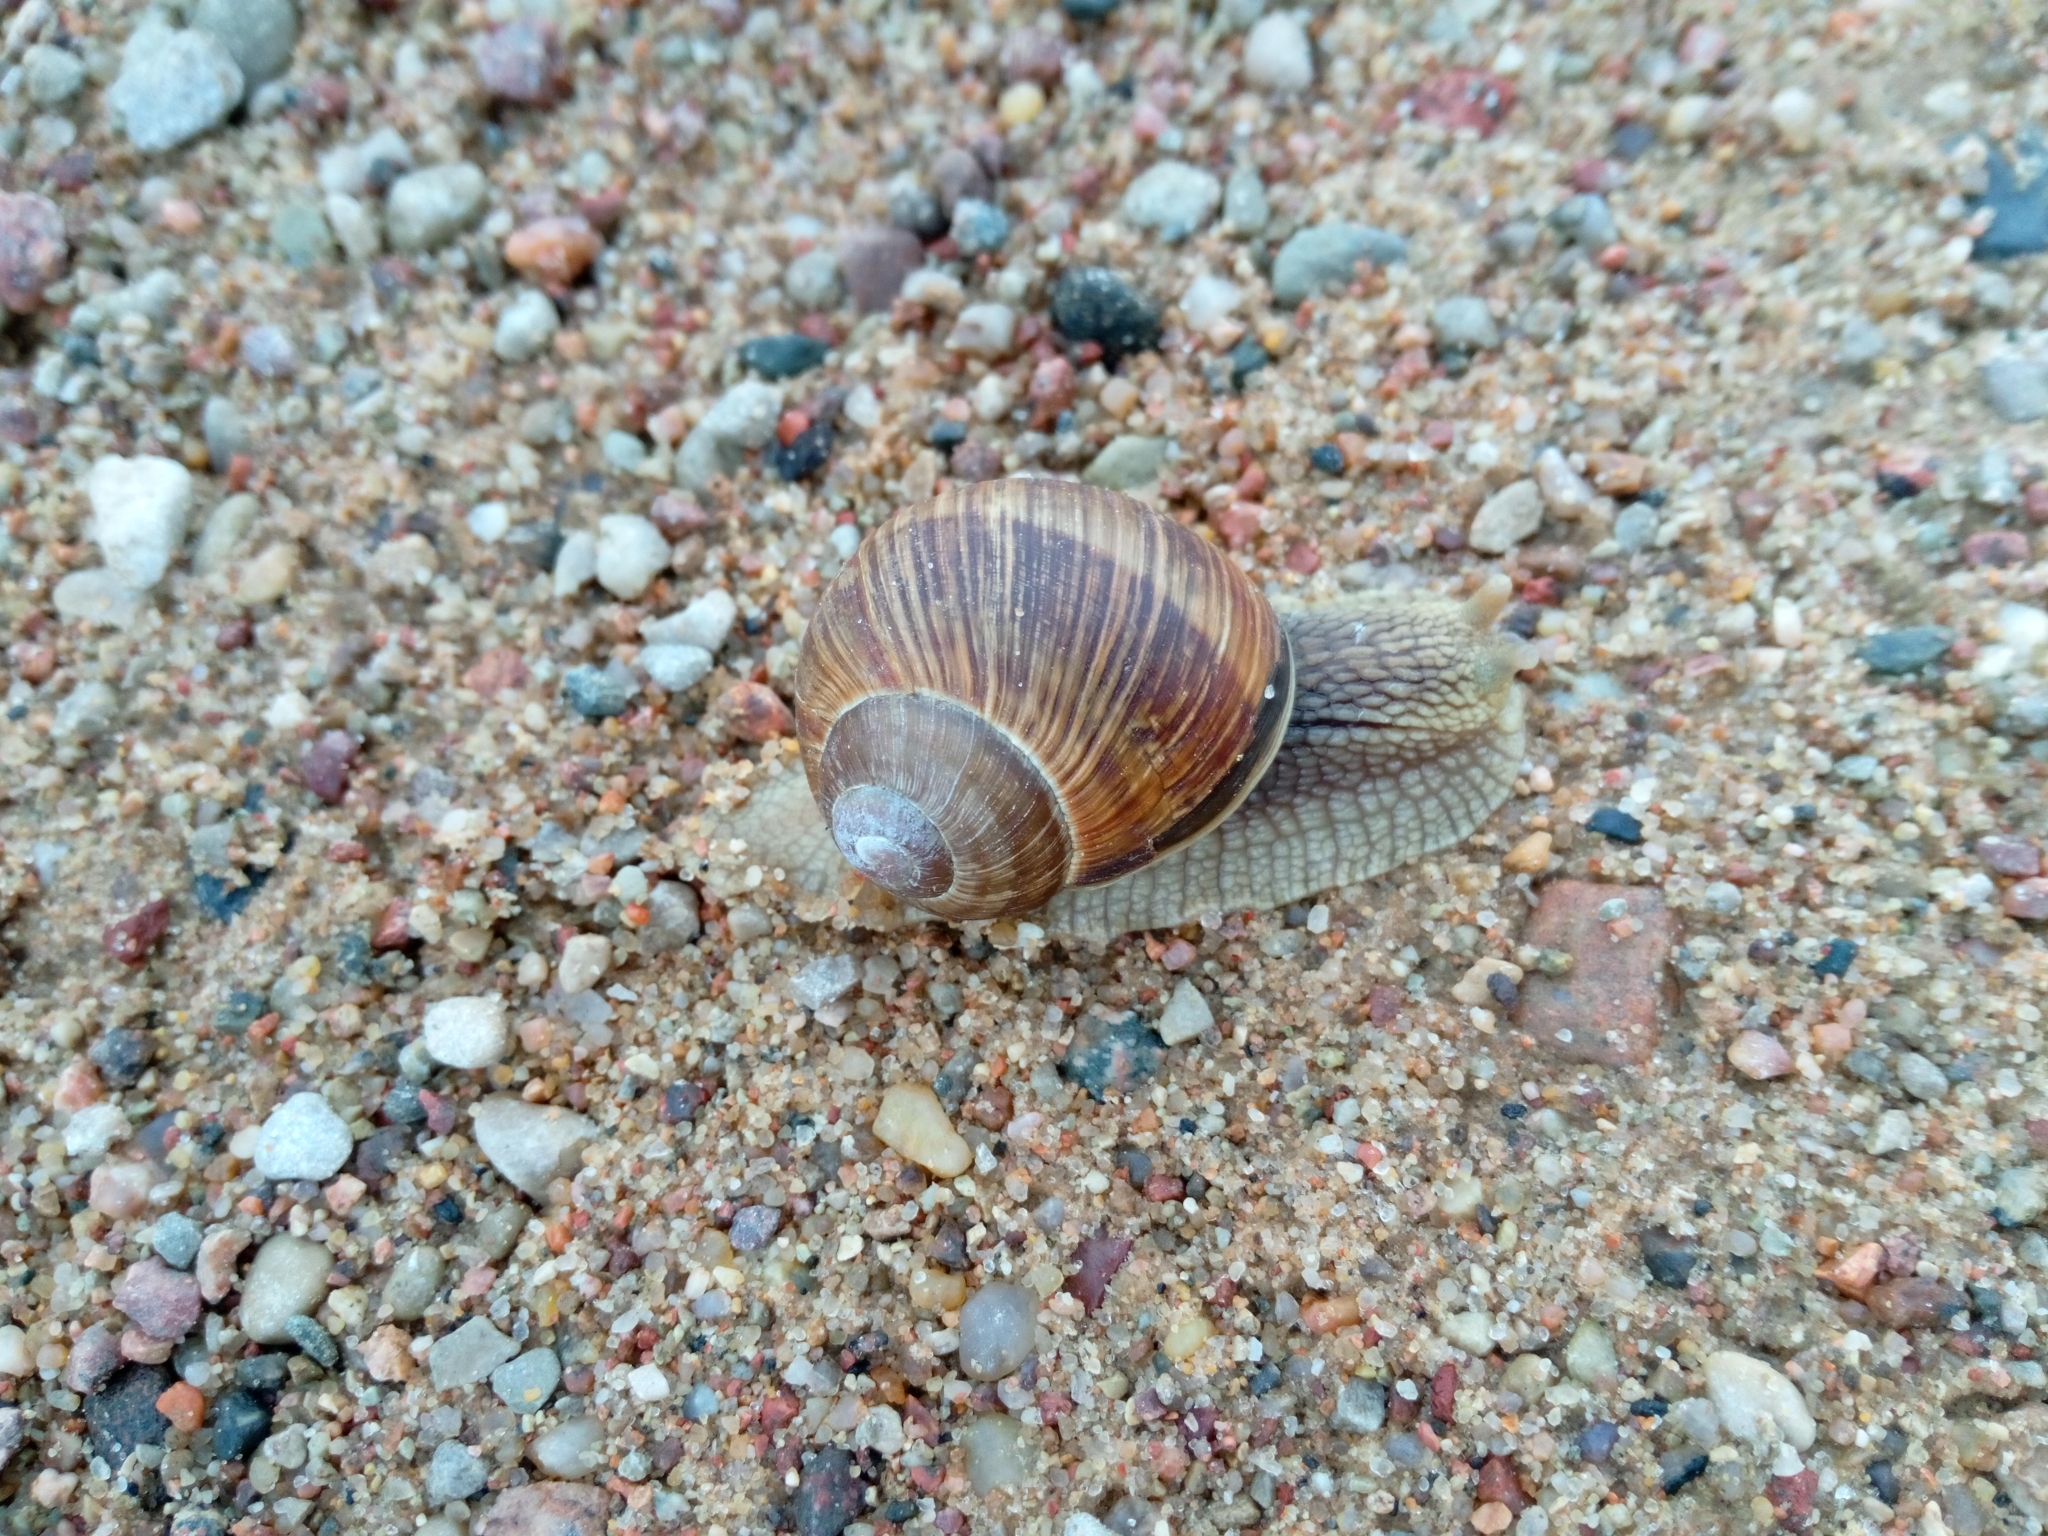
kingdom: Animalia
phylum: Mollusca
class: Gastropoda
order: Stylommatophora
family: Helicidae
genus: Helix
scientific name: Helix pomatia
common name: Roman snail
